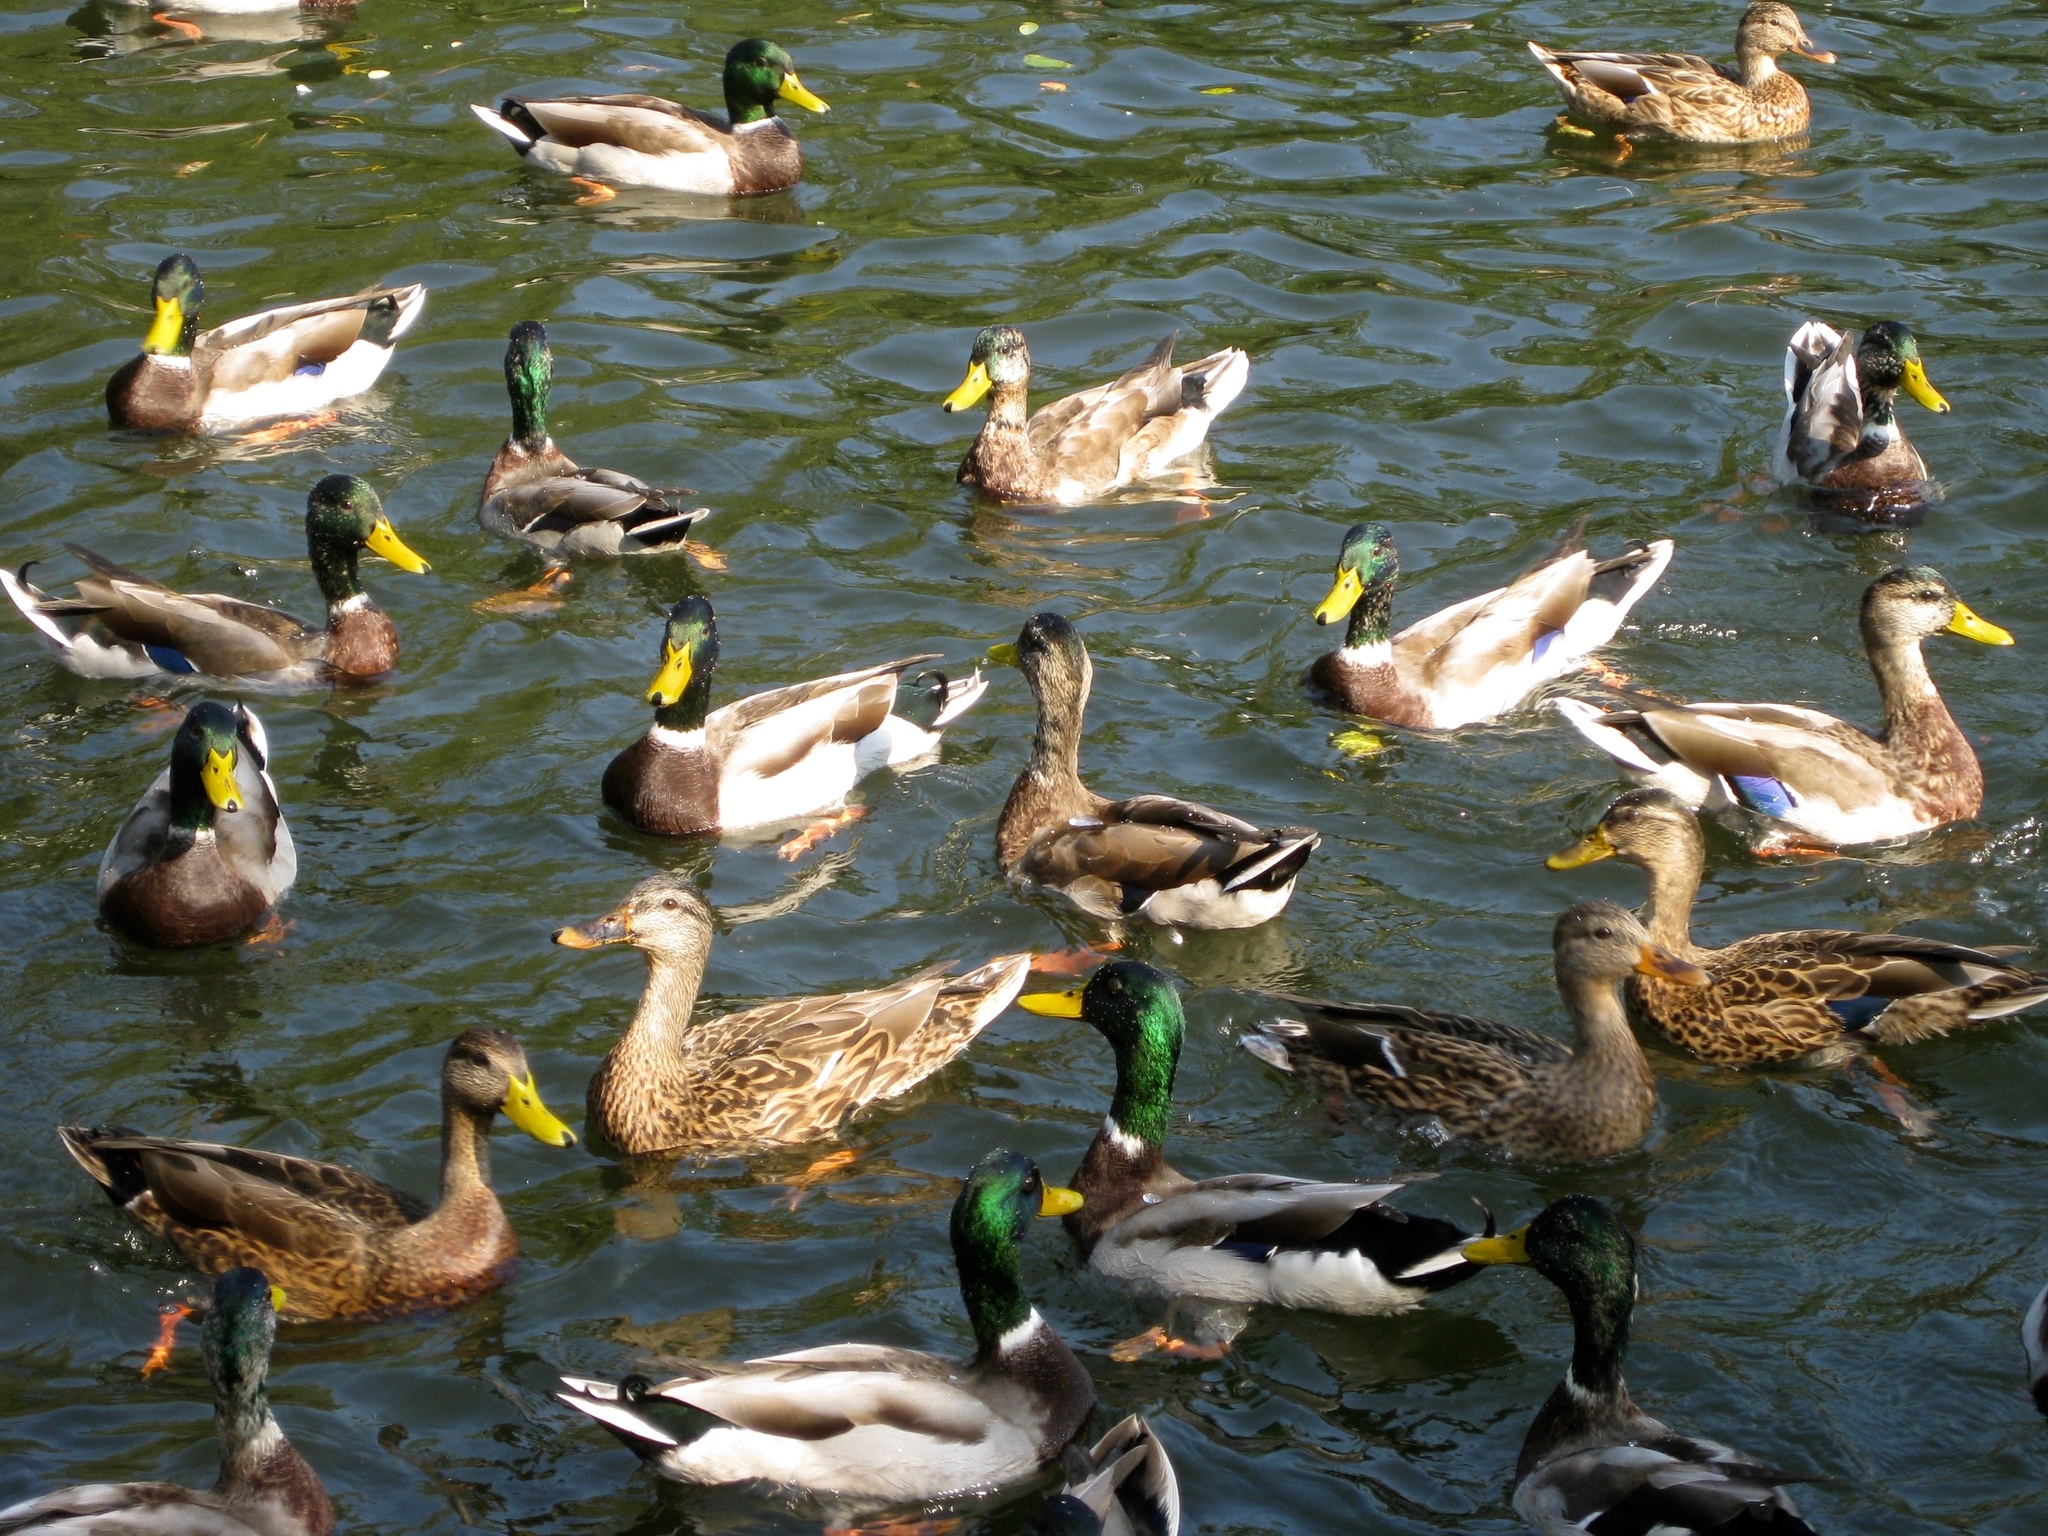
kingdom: Animalia
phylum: Chordata
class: Aves
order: Anseriformes
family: Anatidae
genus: Anas
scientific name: Anas platyrhynchos
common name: Mallard
